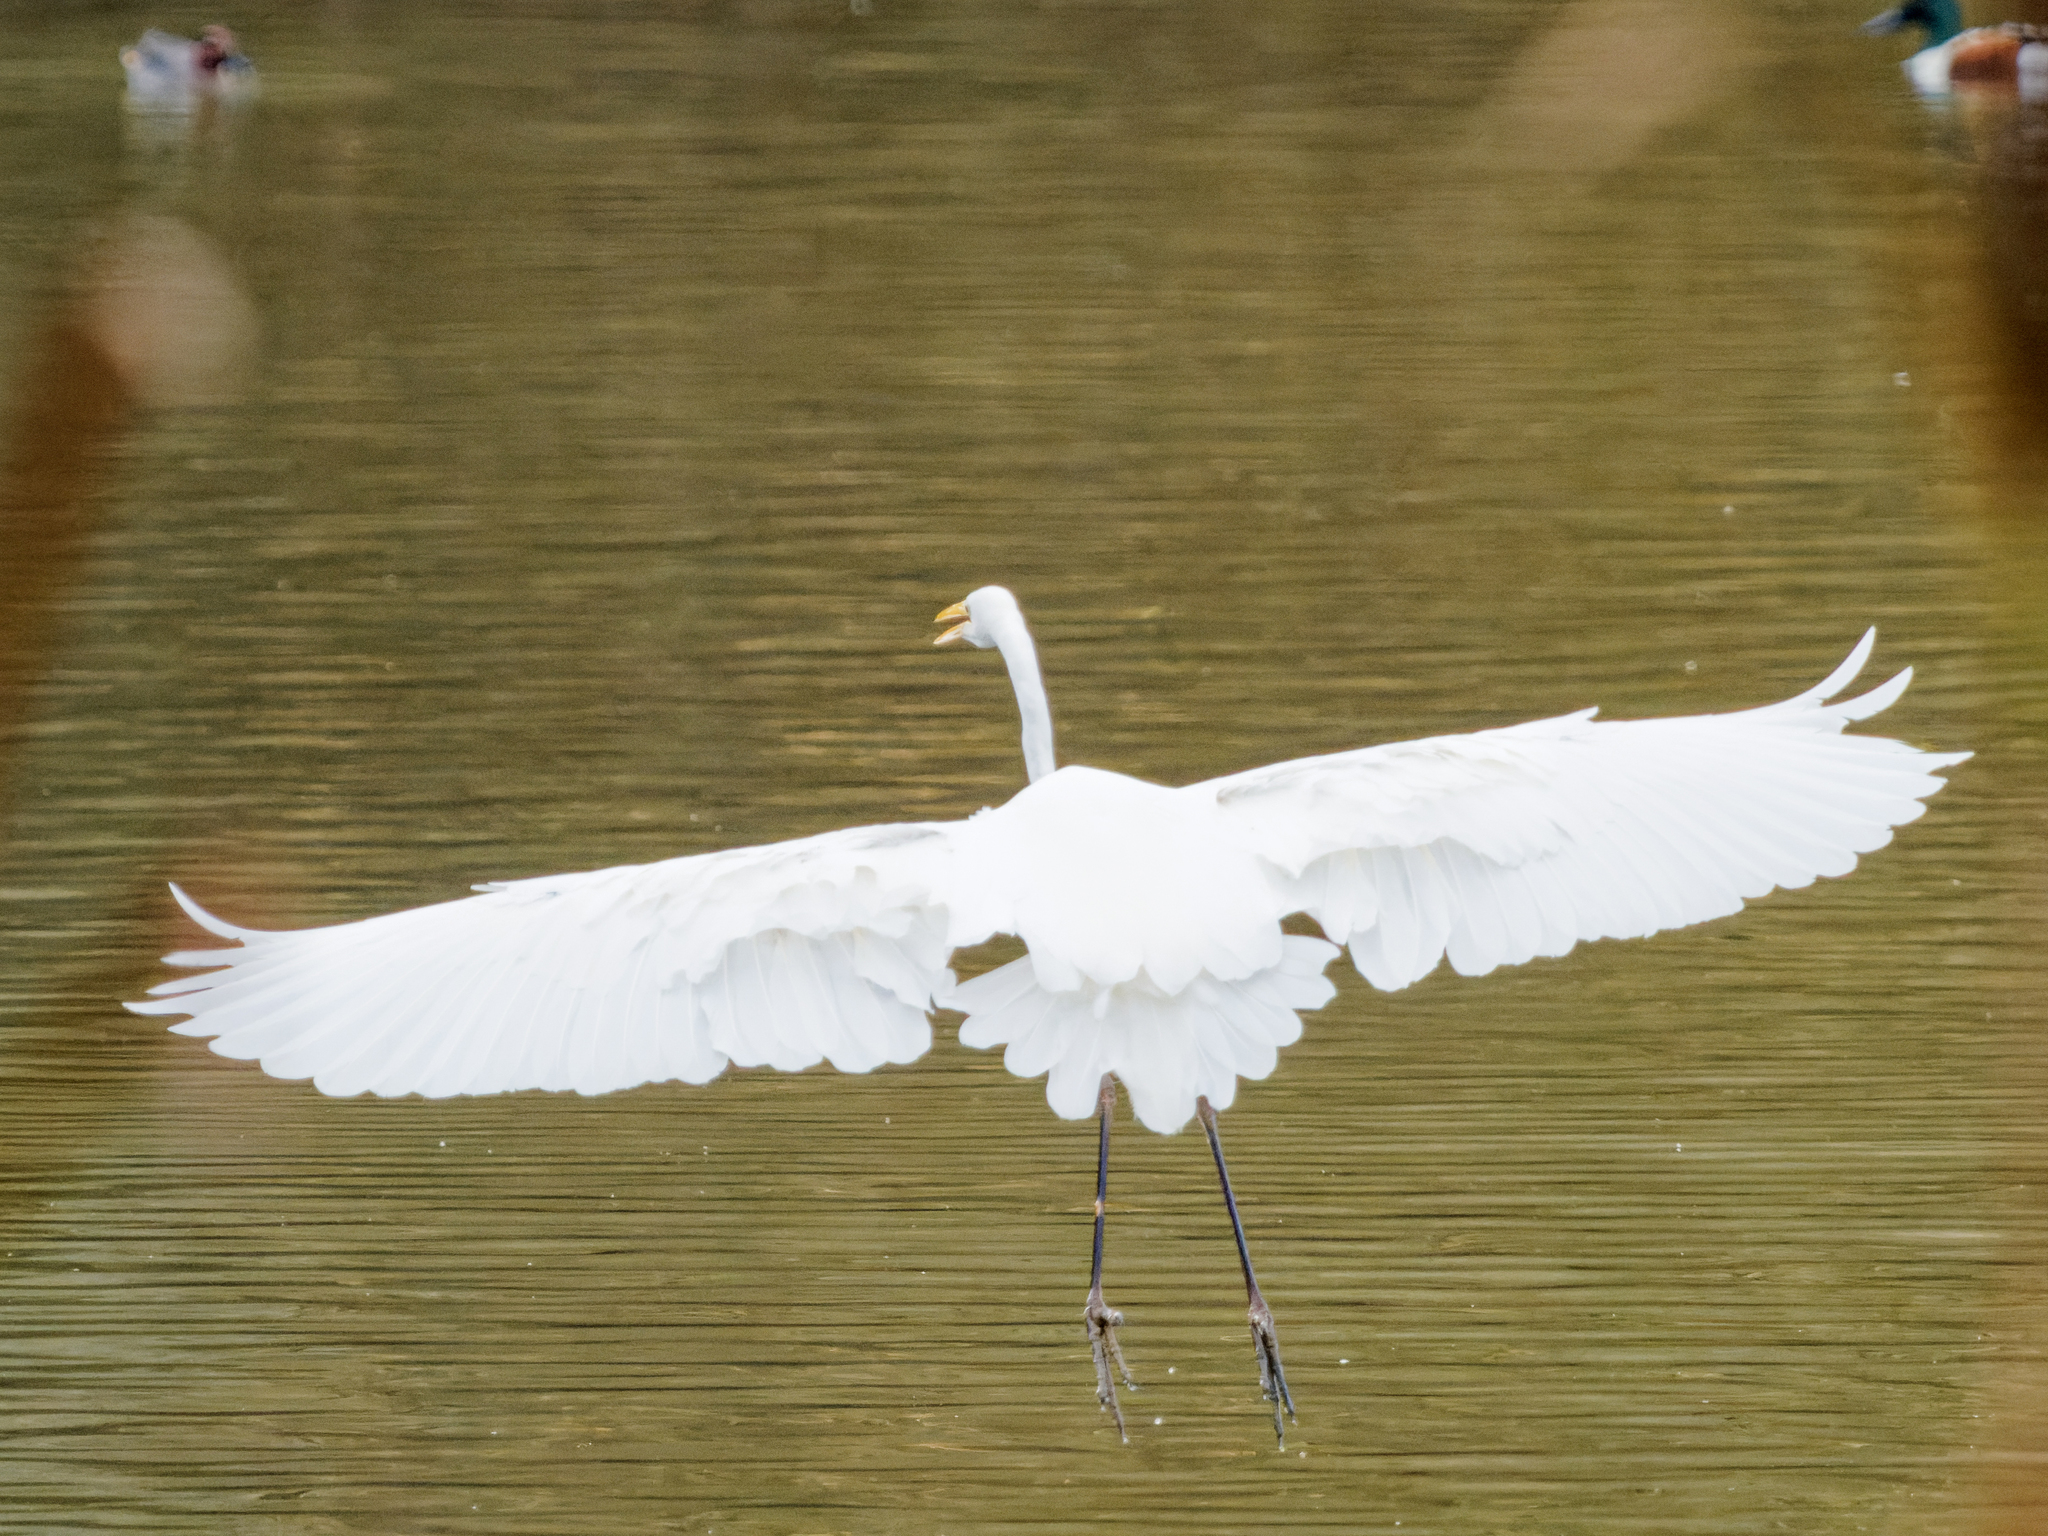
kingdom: Animalia
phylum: Chordata
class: Aves
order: Pelecaniformes
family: Ardeidae
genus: Ardea
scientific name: Ardea alba
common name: Great egret
